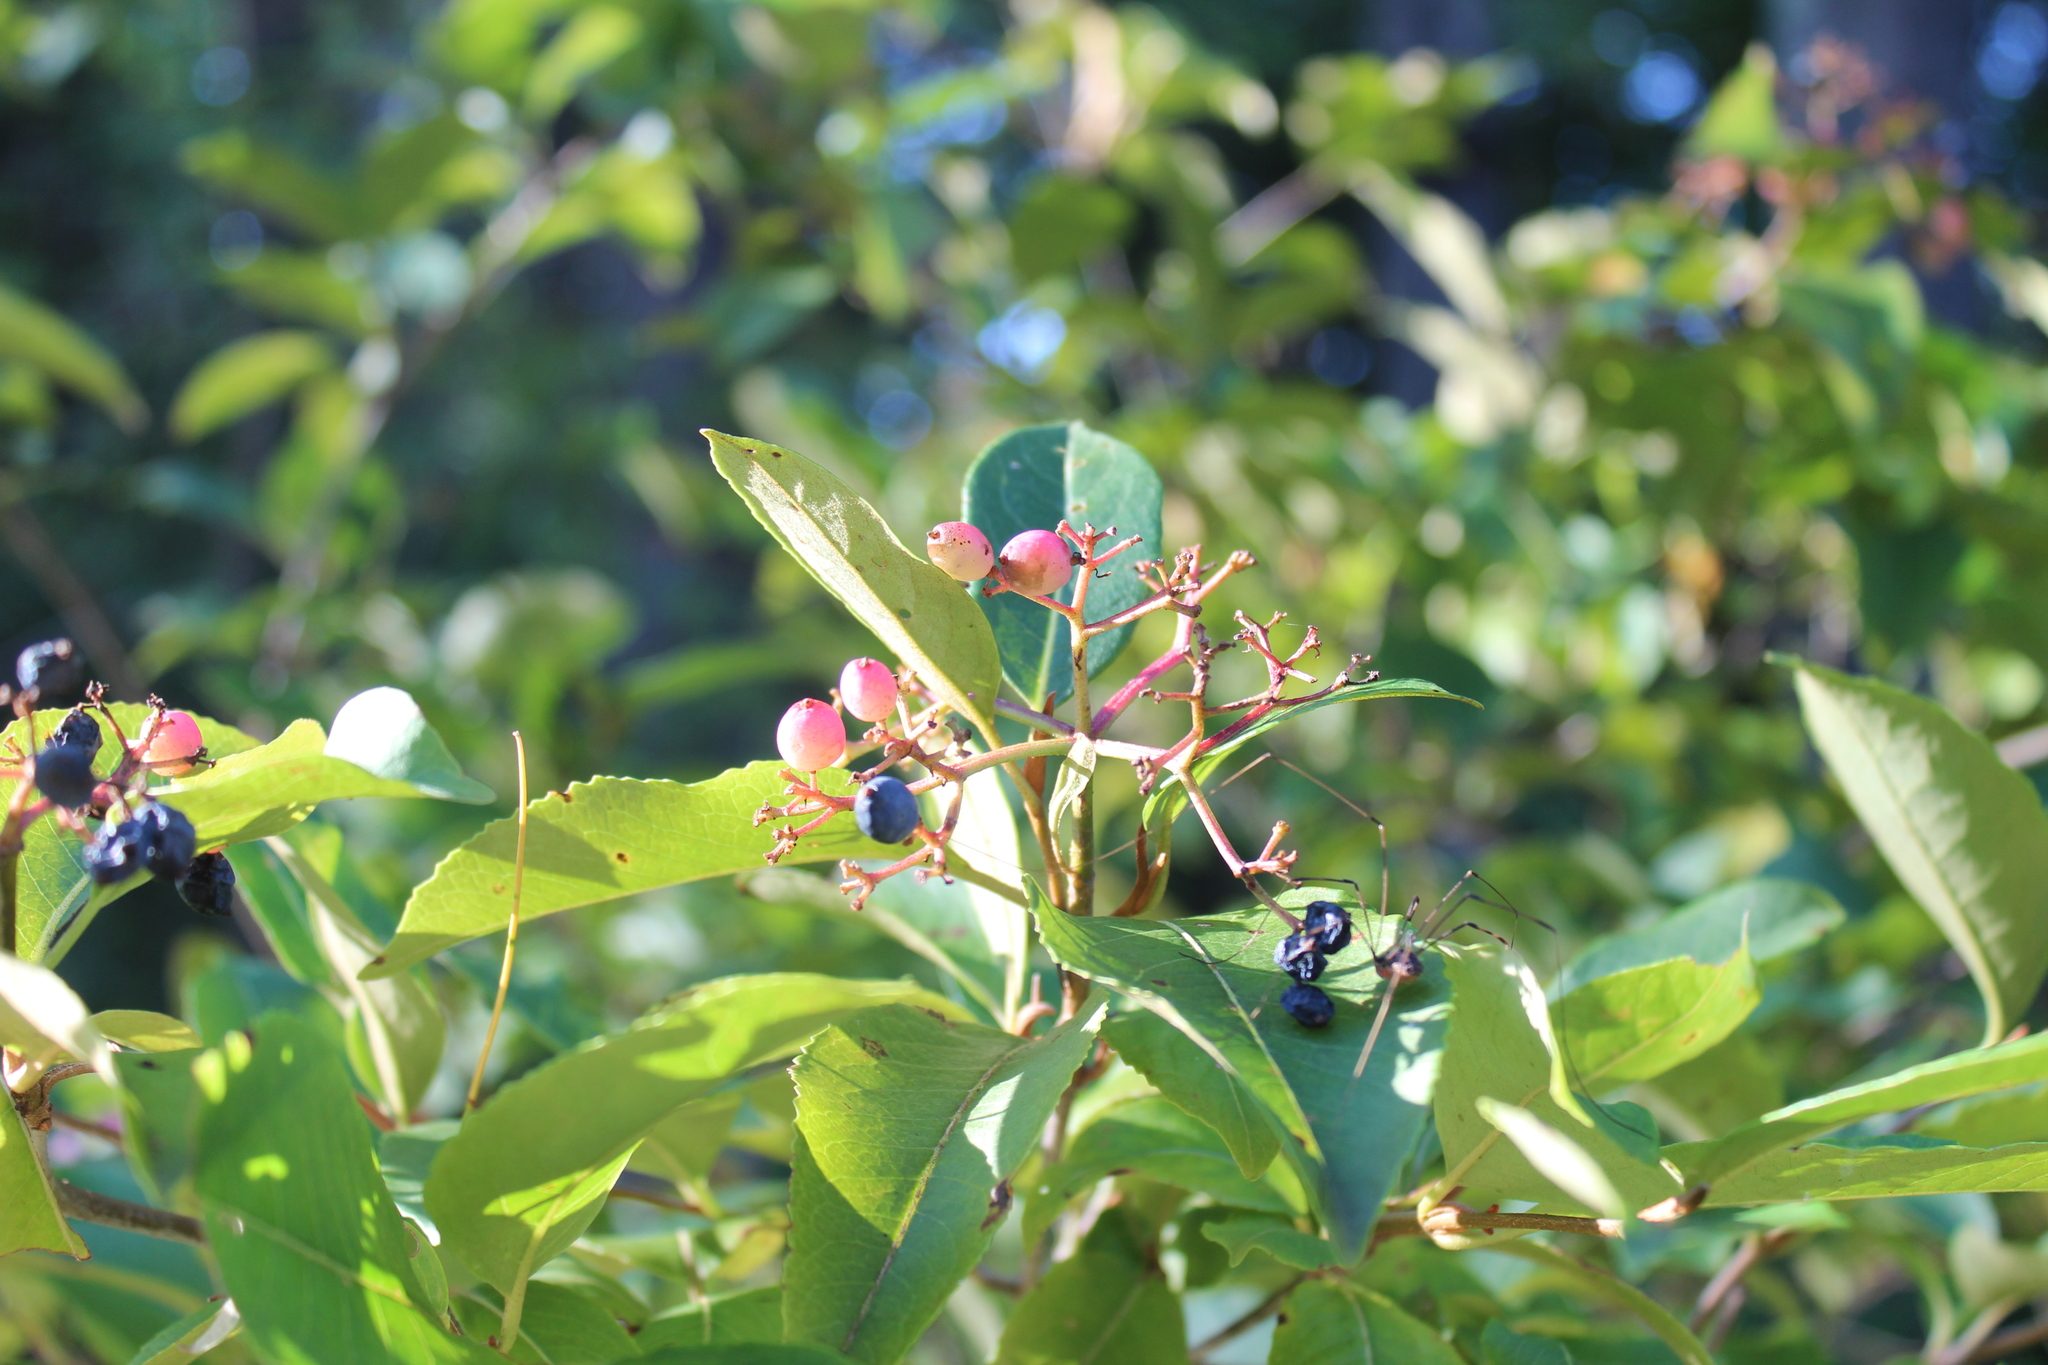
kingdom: Plantae
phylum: Tracheophyta
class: Magnoliopsida
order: Dipsacales
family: Viburnaceae
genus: Viburnum
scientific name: Viburnum cassinoides
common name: Swamp haw
